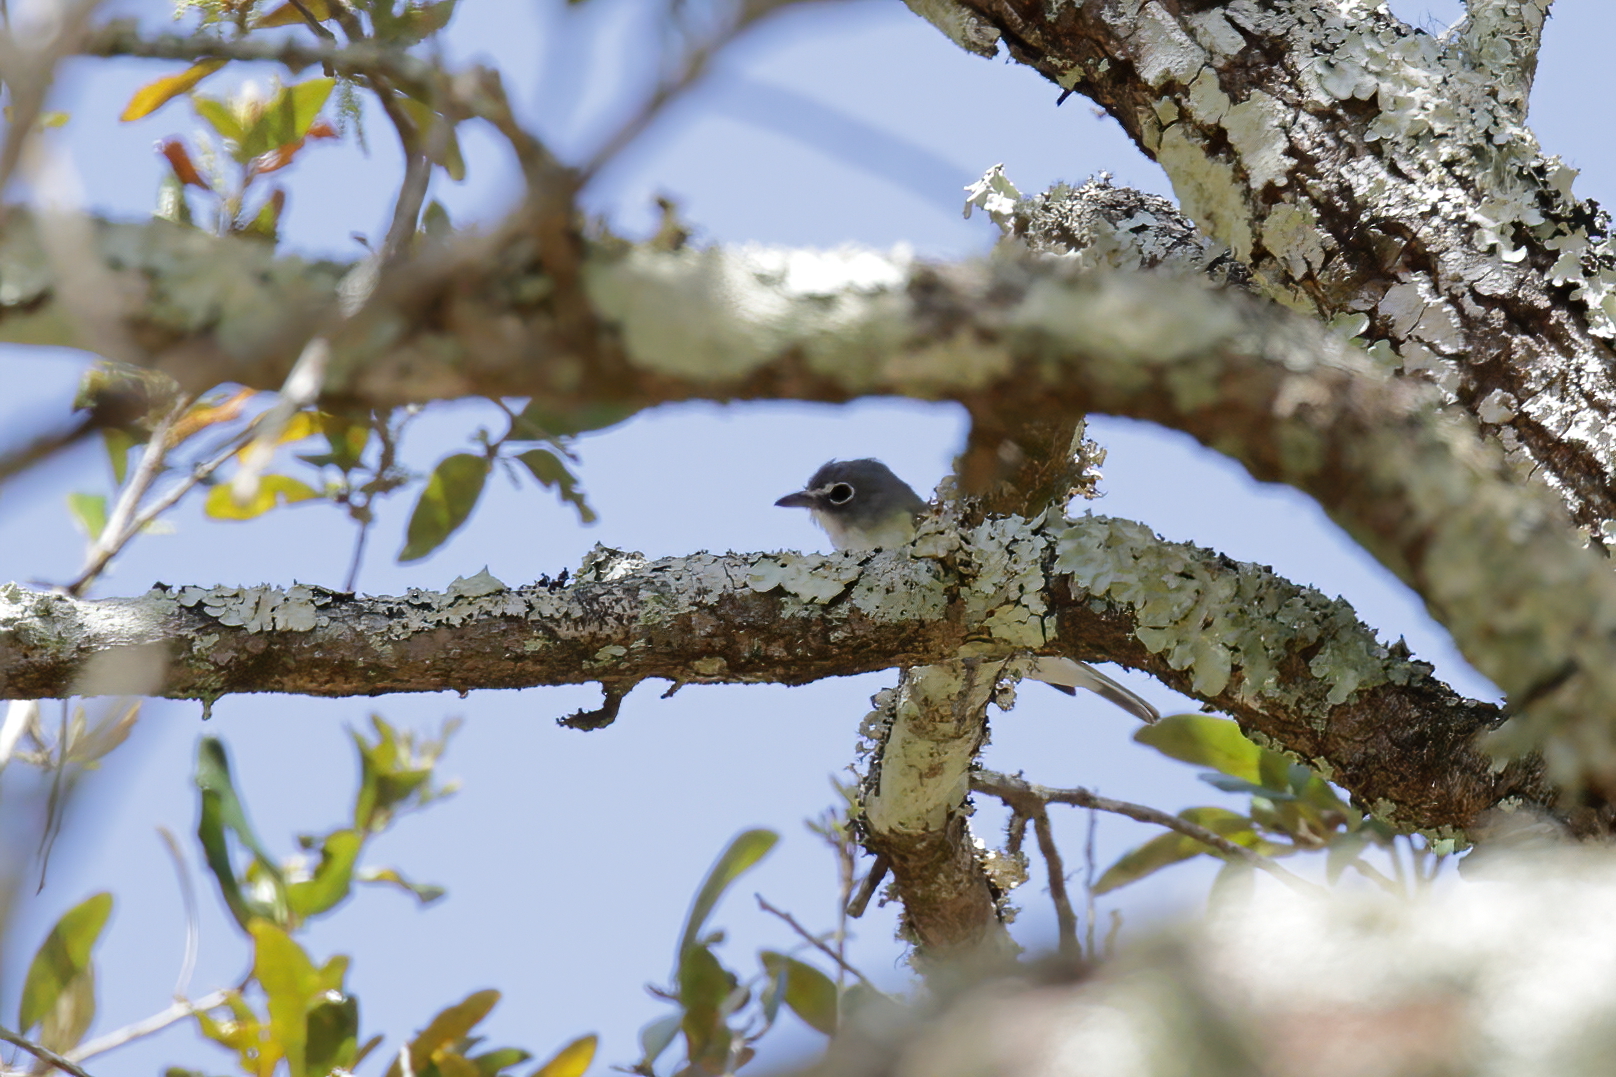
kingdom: Animalia
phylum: Chordata
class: Aves
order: Passeriformes
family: Vireonidae
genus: Vireo
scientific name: Vireo solitarius
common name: Blue-headed vireo
